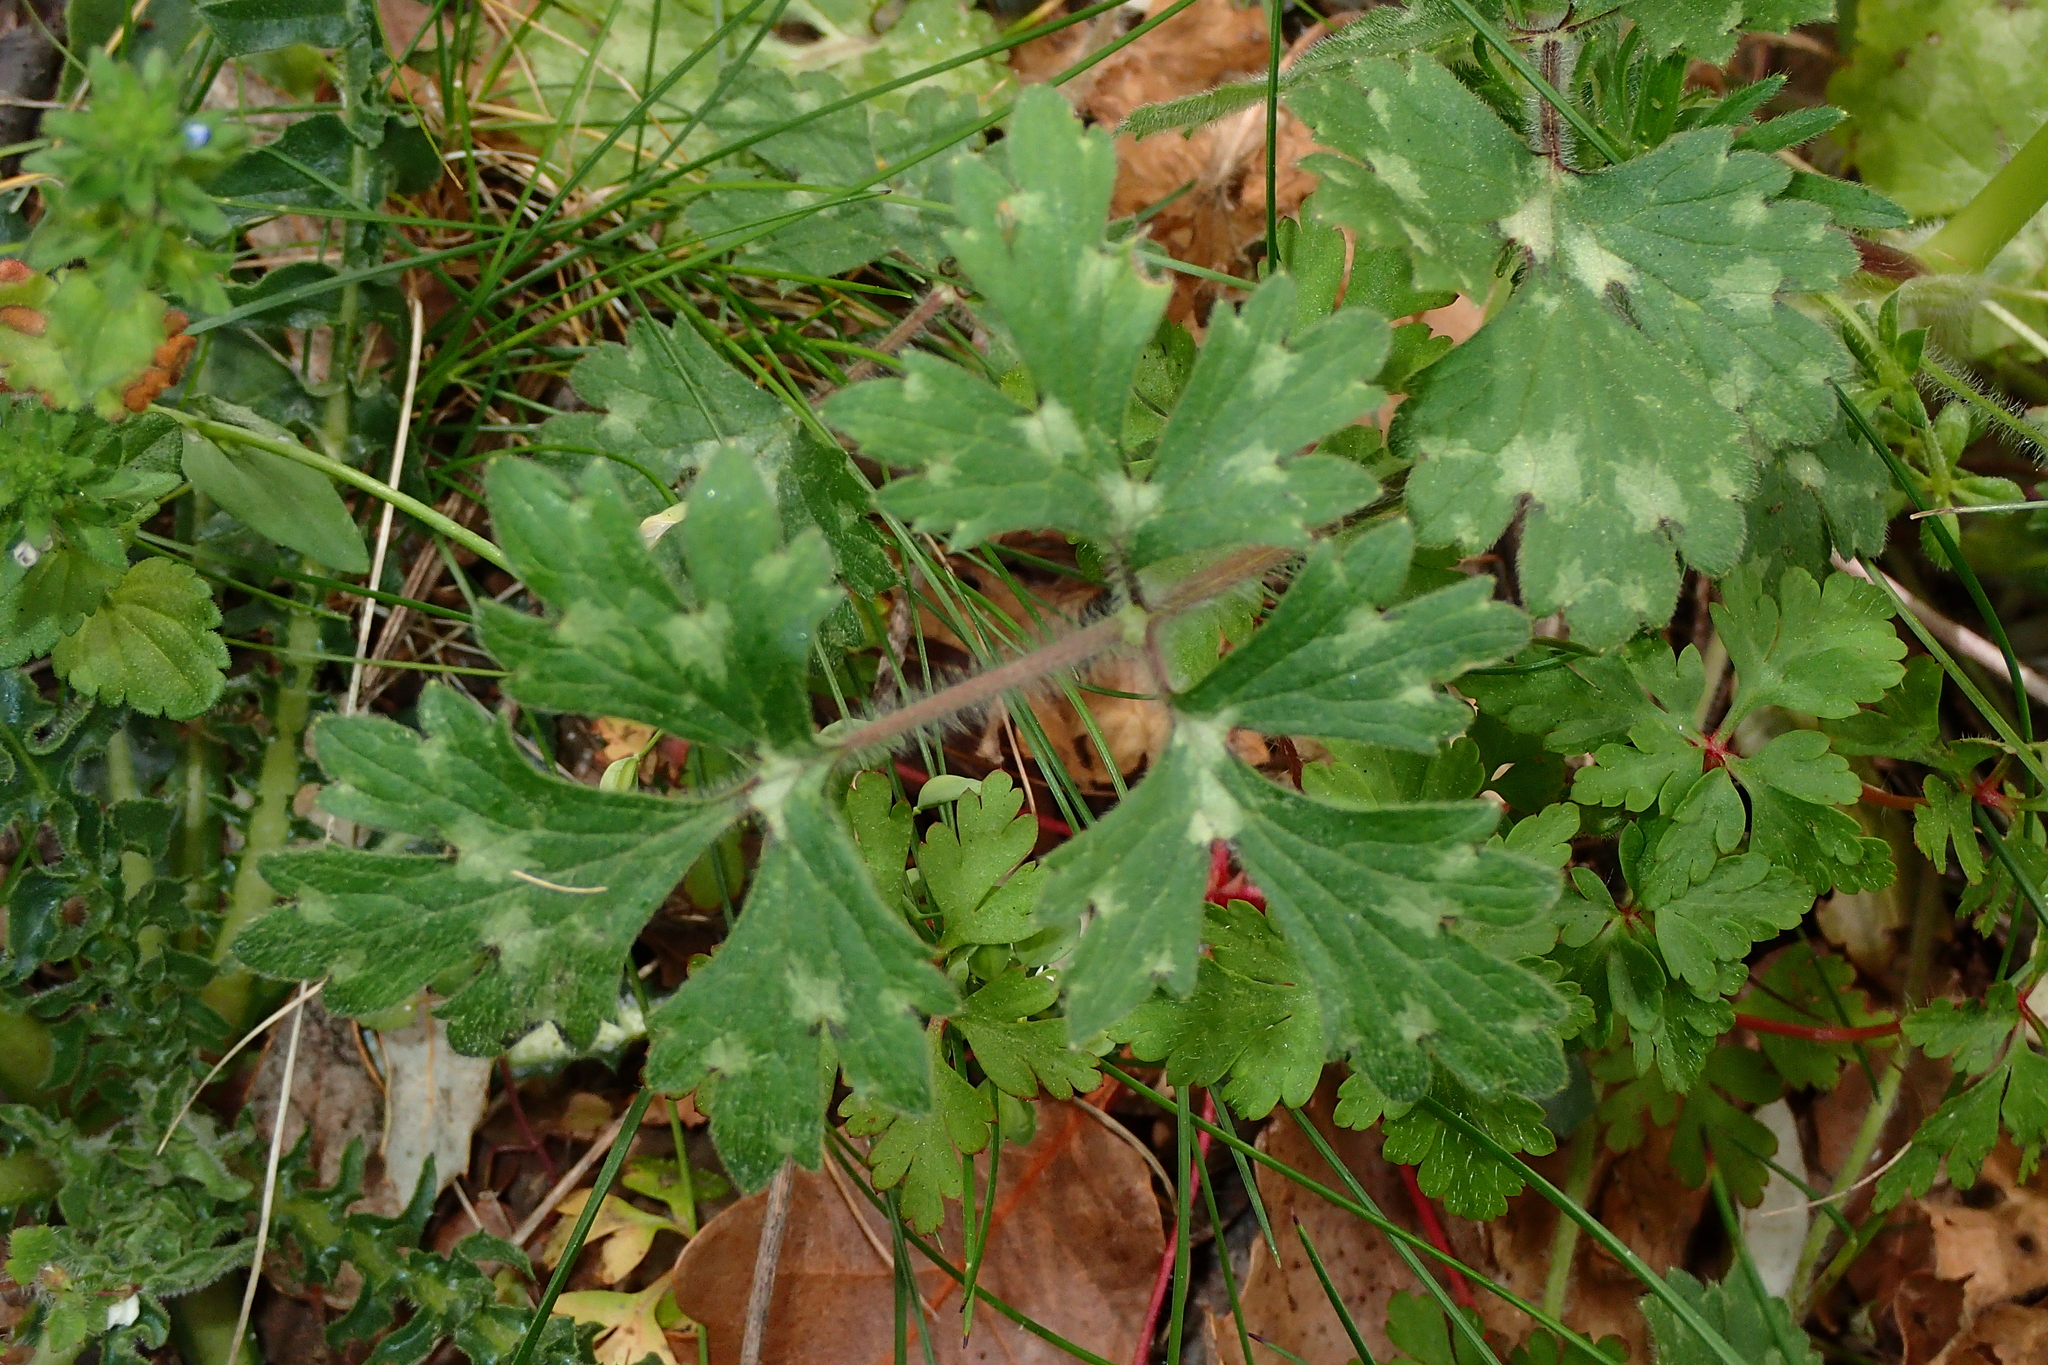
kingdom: Plantae
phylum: Tracheophyta
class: Magnoliopsida
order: Ranunculales
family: Ranunculaceae
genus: Ranunculus
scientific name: Ranunculus bulbosus
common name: Bulbous buttercup
